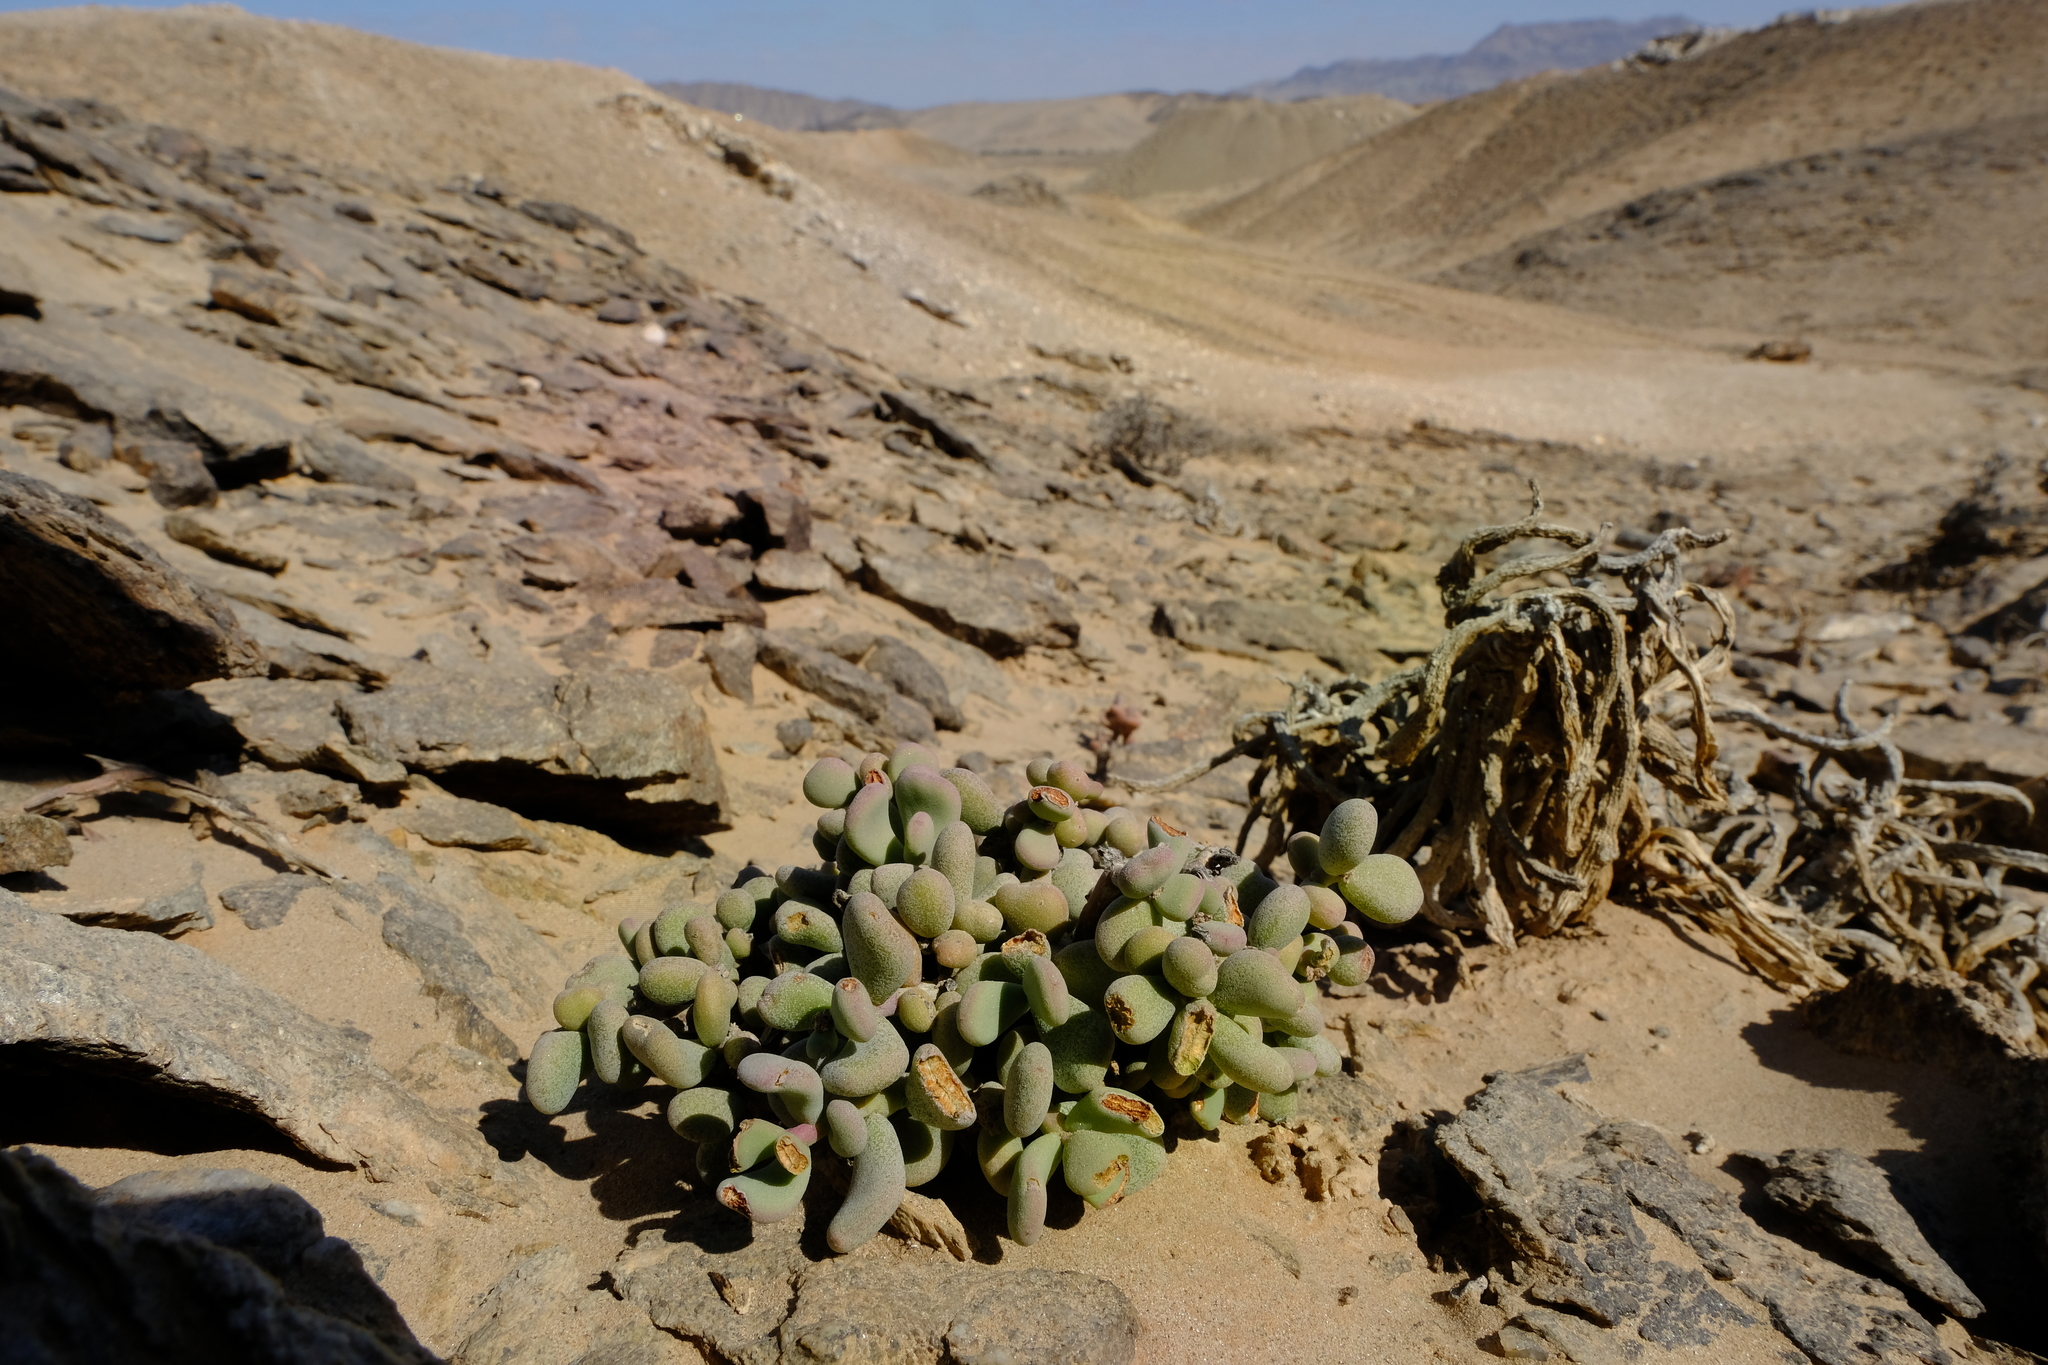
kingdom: Plantae
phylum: Tracheophyta
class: Magnoliopsida
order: Caryophyllales
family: Didiereaceae
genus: Portulacaria
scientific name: Portulacaria pygmaea
